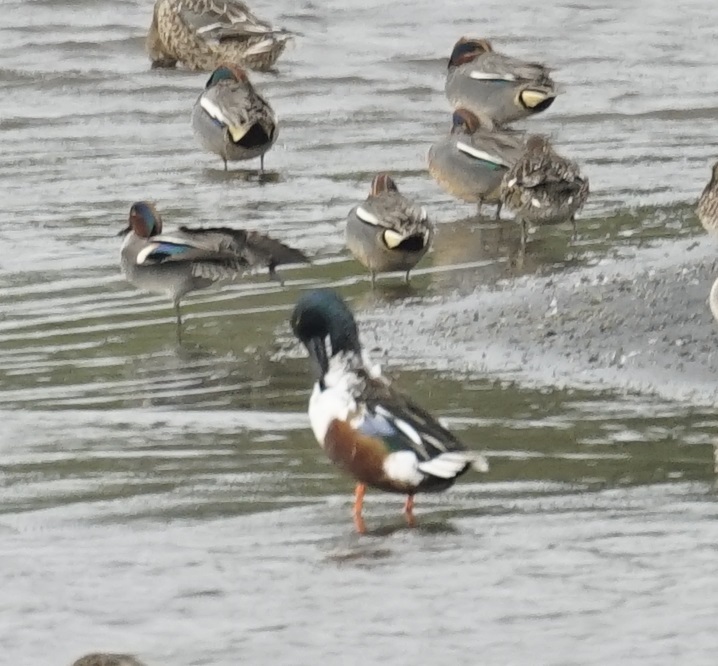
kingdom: Animalia
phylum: Chordata
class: Aves
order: Anseriformes
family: Anatidae
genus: Spatula
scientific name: Spatula clypeata
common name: Northern shoveler
